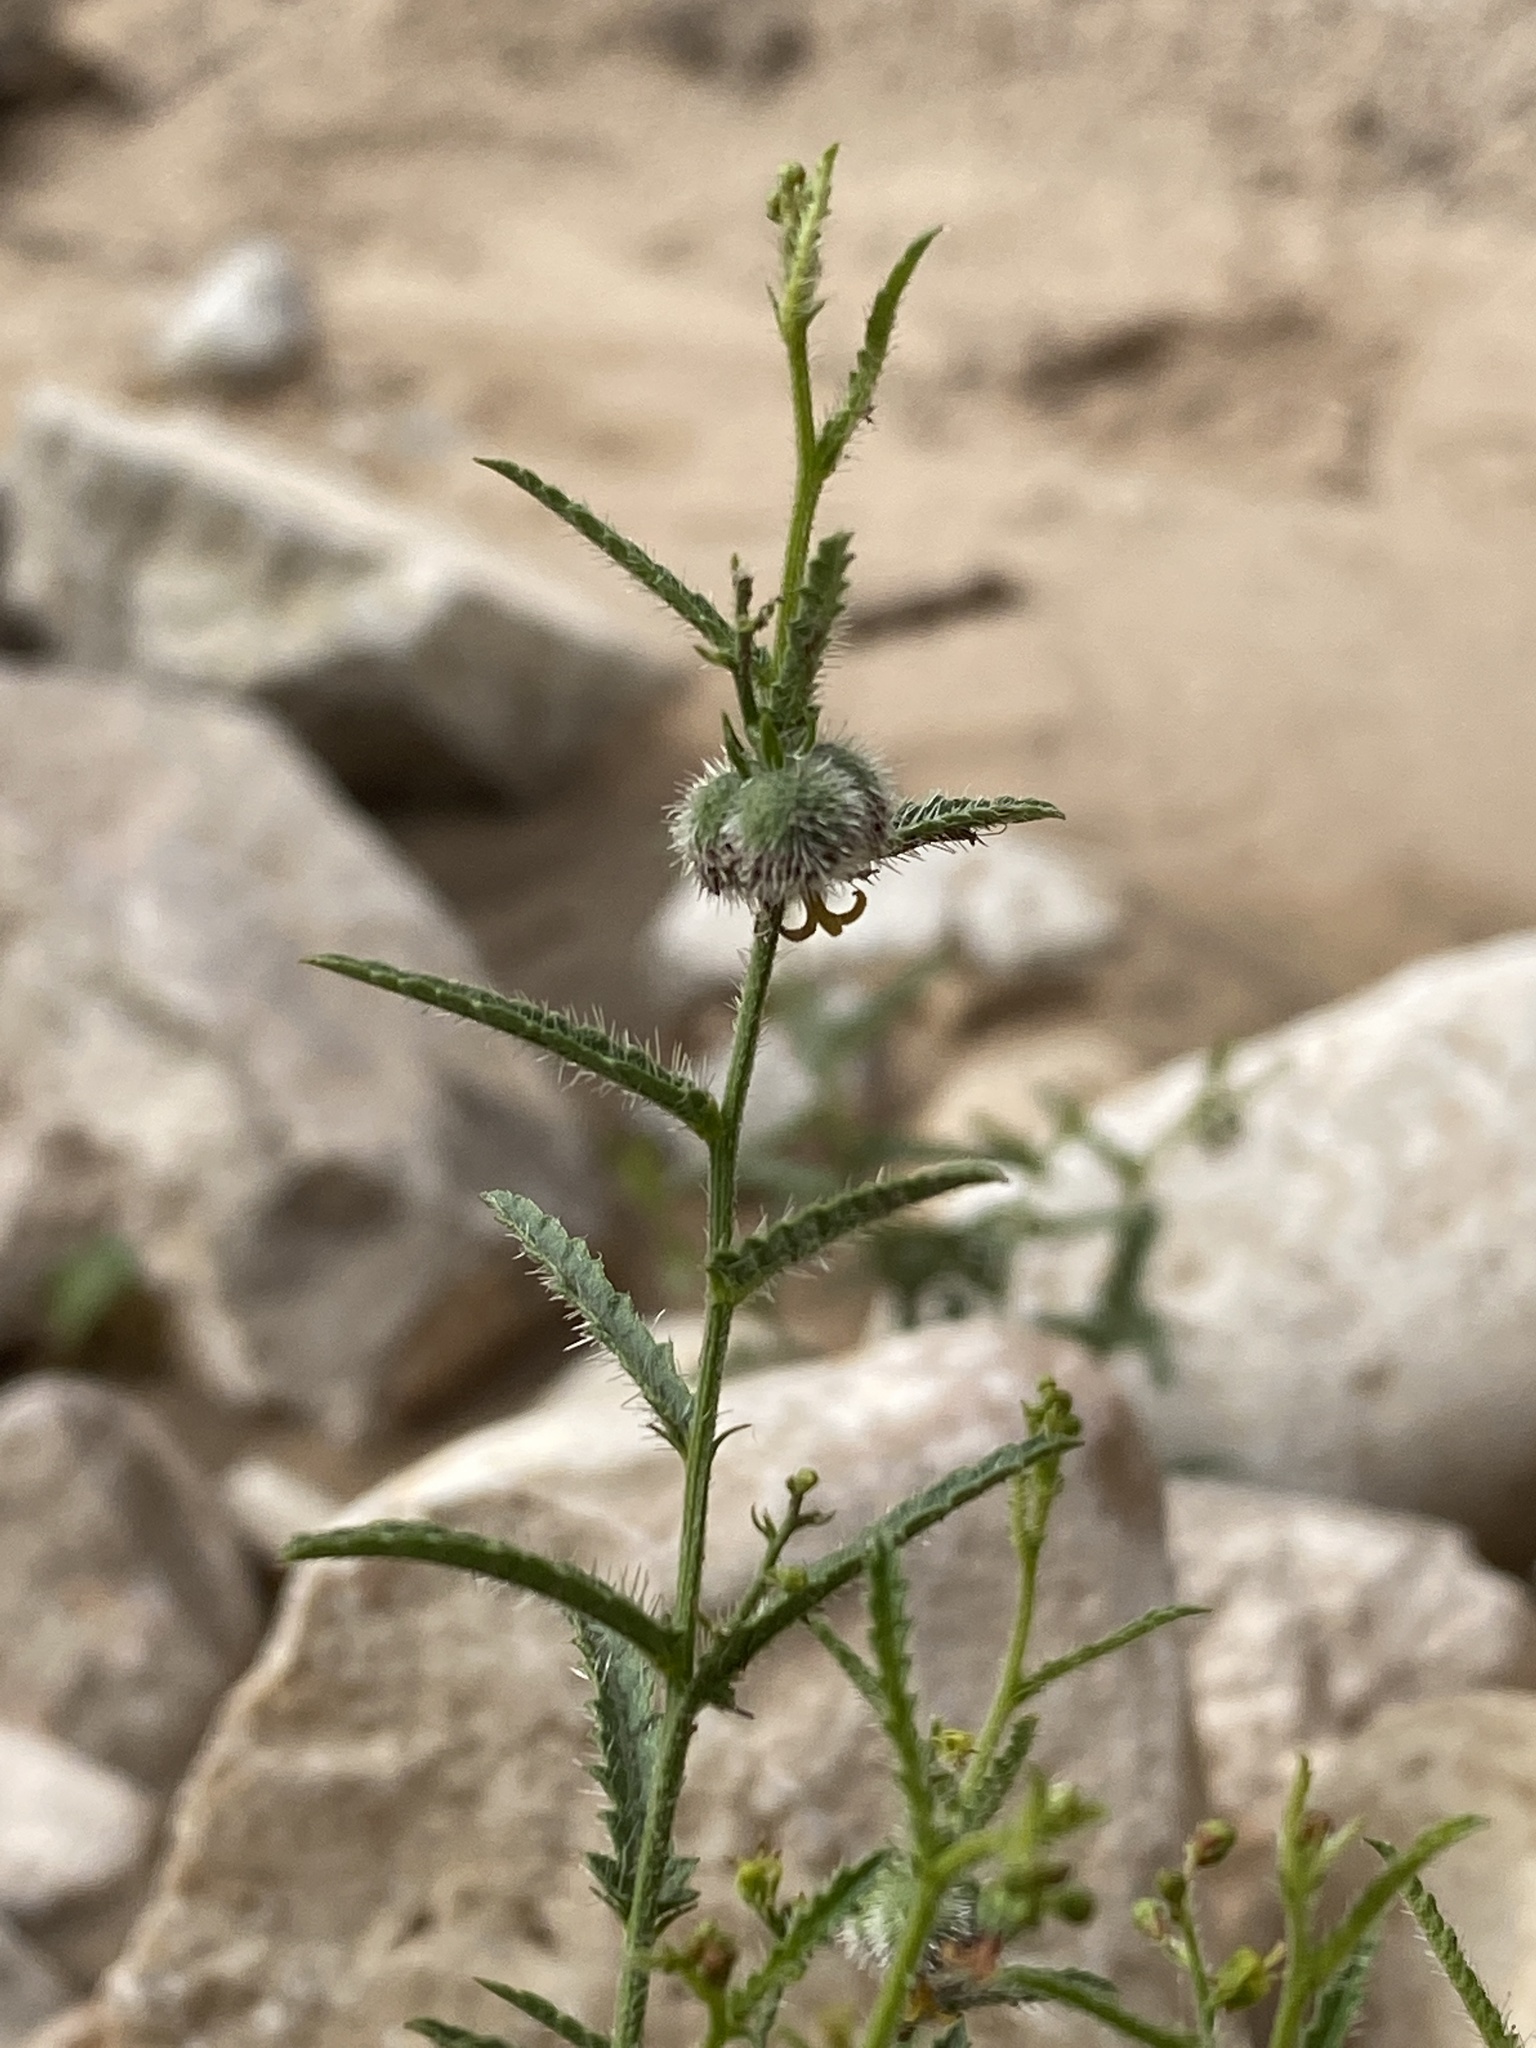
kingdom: Plantae
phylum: Tracheophyta
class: Magnoliopsida
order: Malpighiales
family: Euphorbiaceae
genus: Tragia
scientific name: Tragia ramosa
